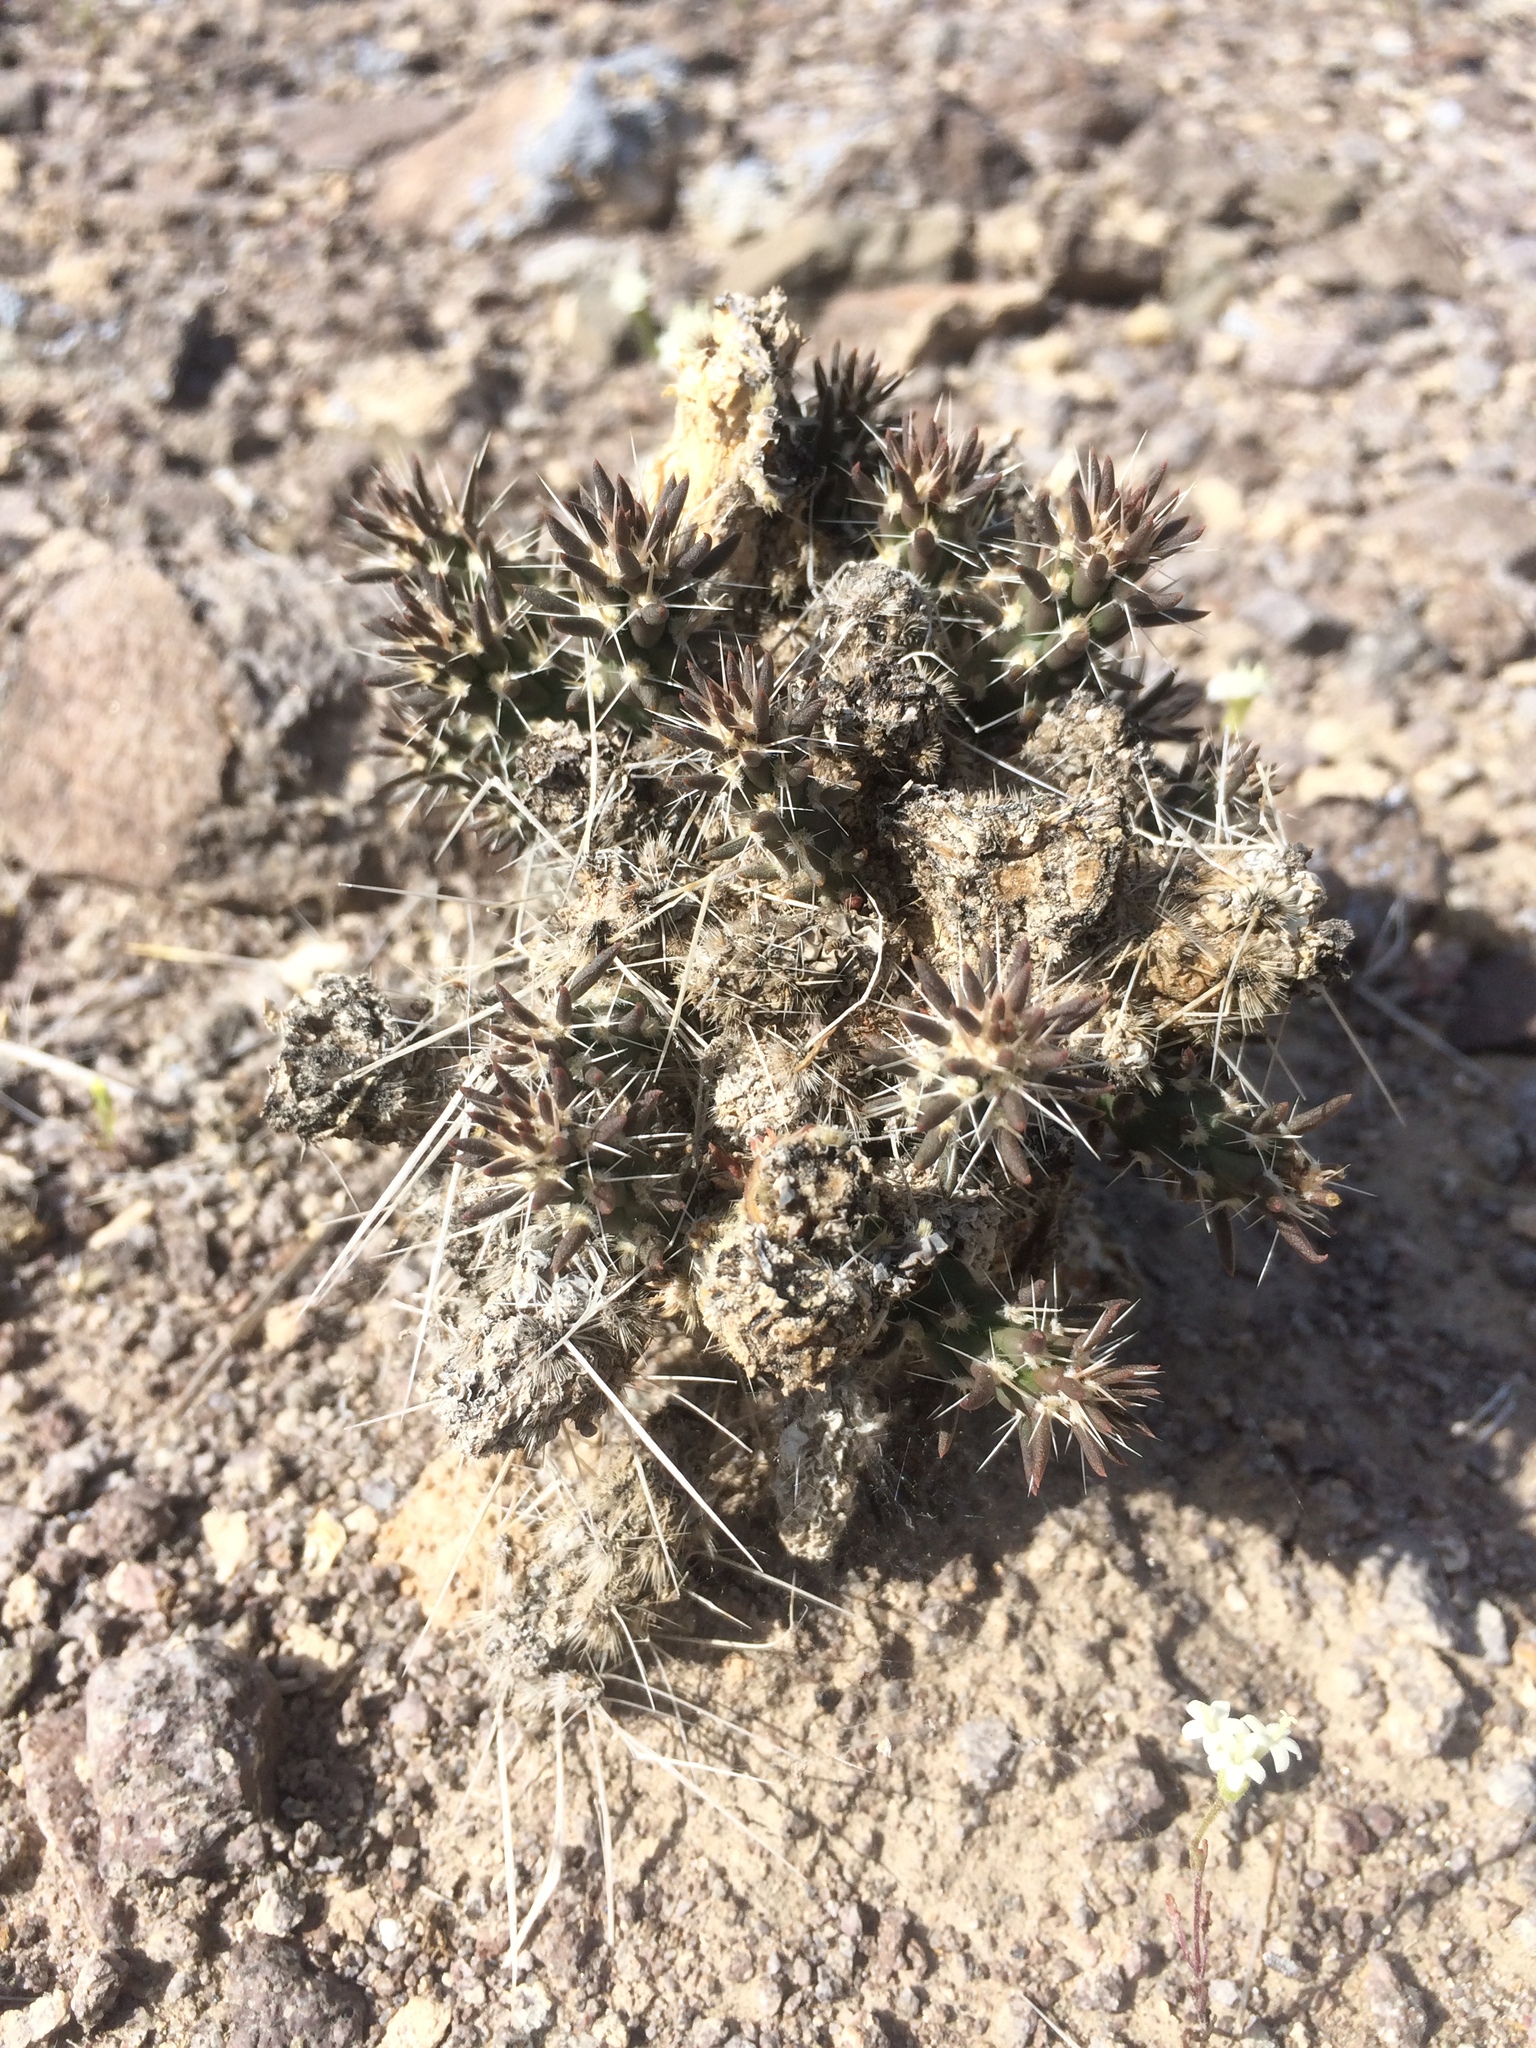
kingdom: Plantae
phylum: Tracheophyta
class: Magnoliopsida
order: Caryophyllales
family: Cactaceae
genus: Micropuntia
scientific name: Micropuntia pulchella
